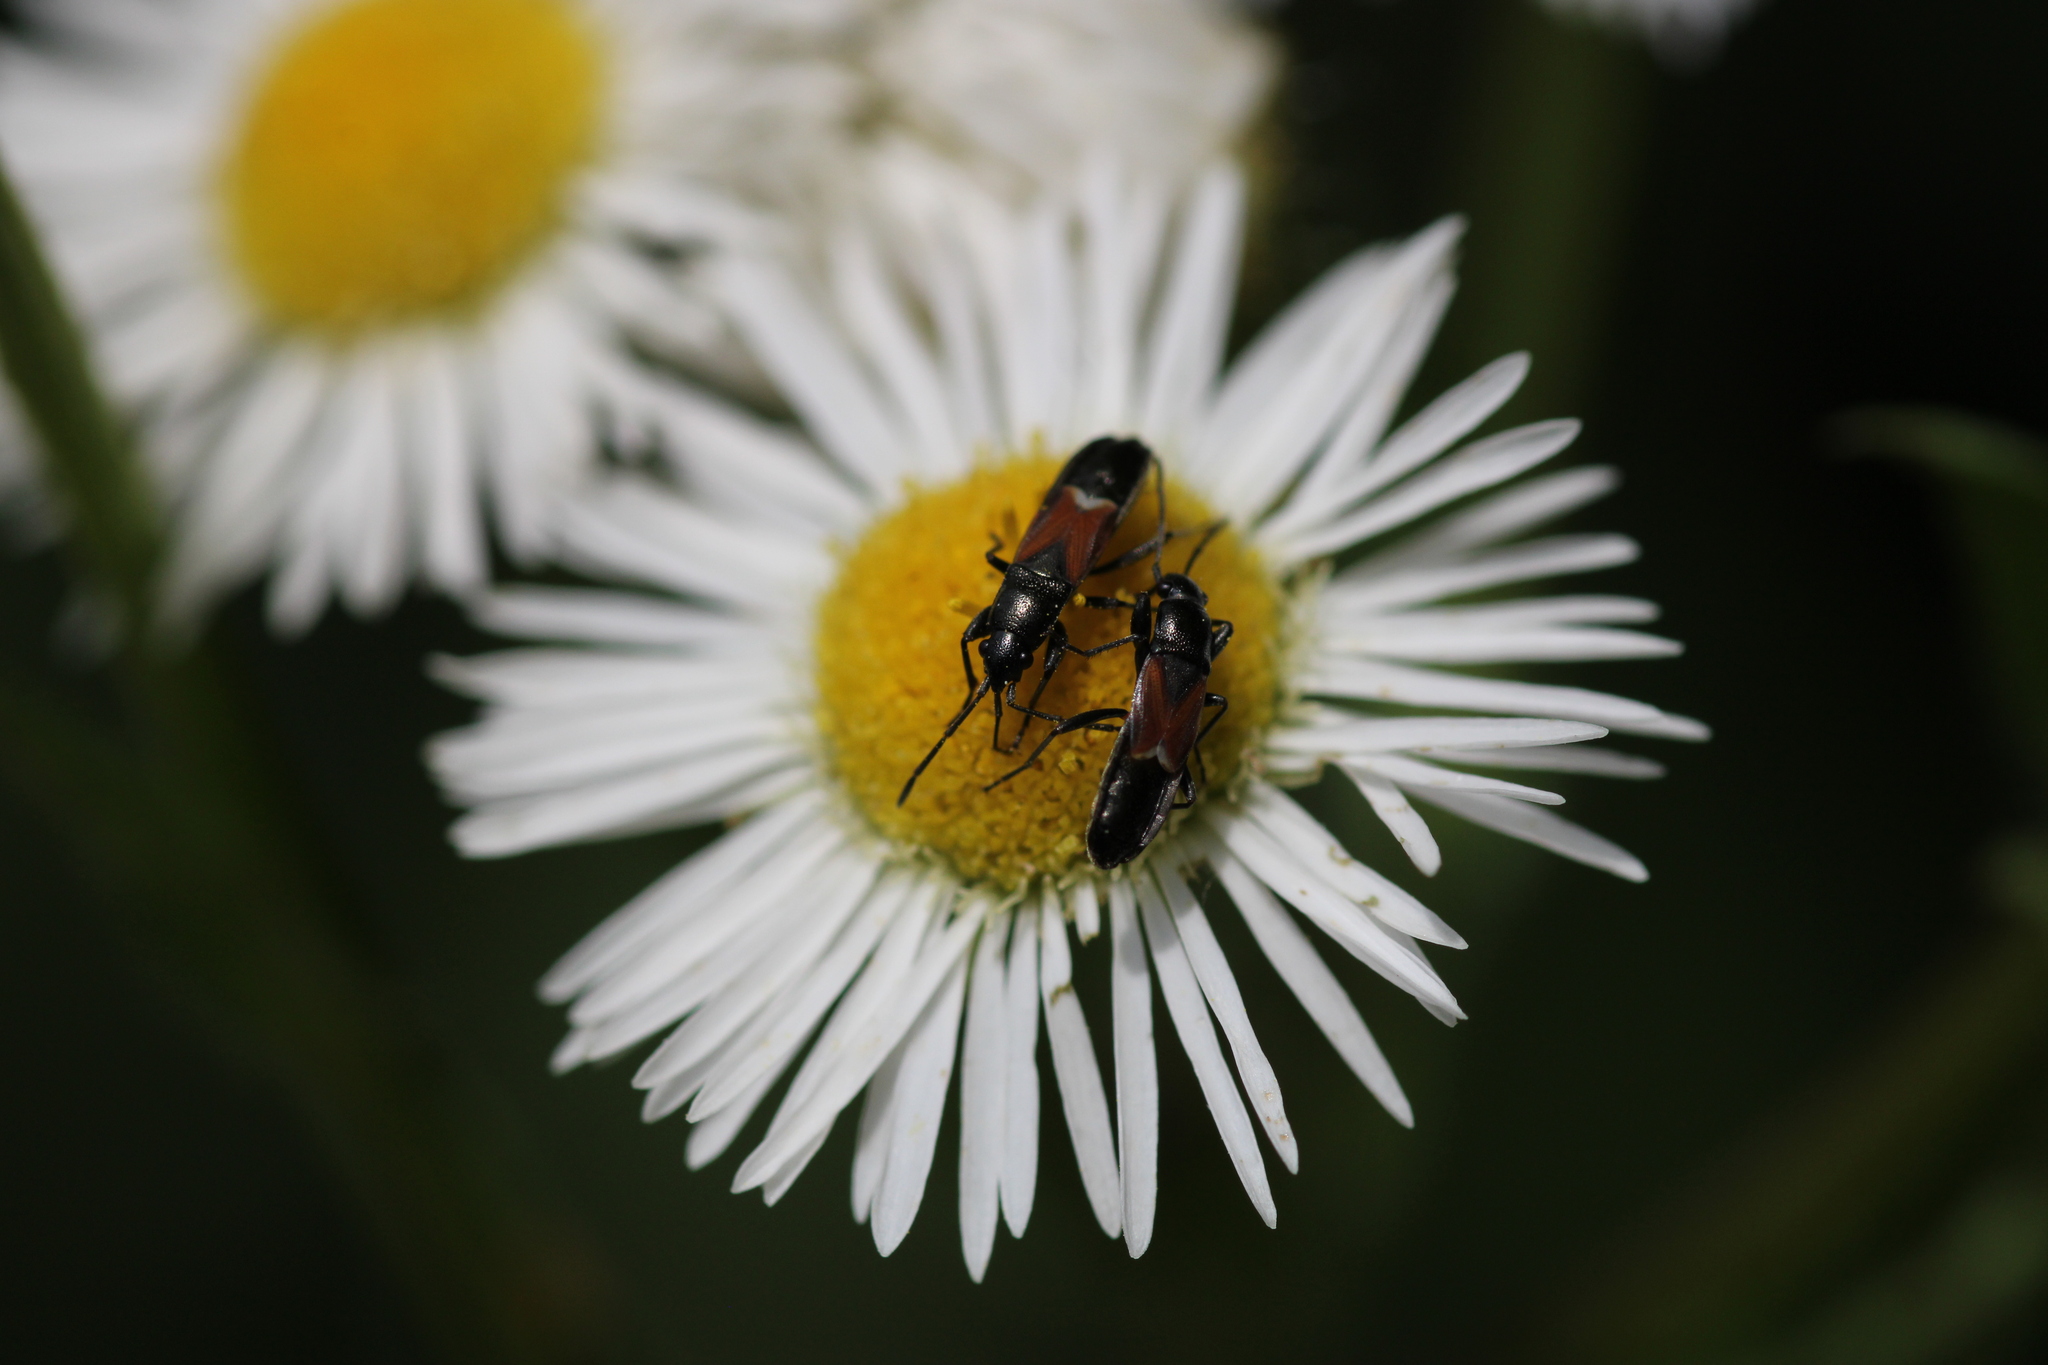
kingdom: Animalia
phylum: Arthropoda
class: Insecta
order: Hemiptera
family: Rhyparochromidae
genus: Pterotmetus
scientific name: Pterotmetus staphyliniformis
